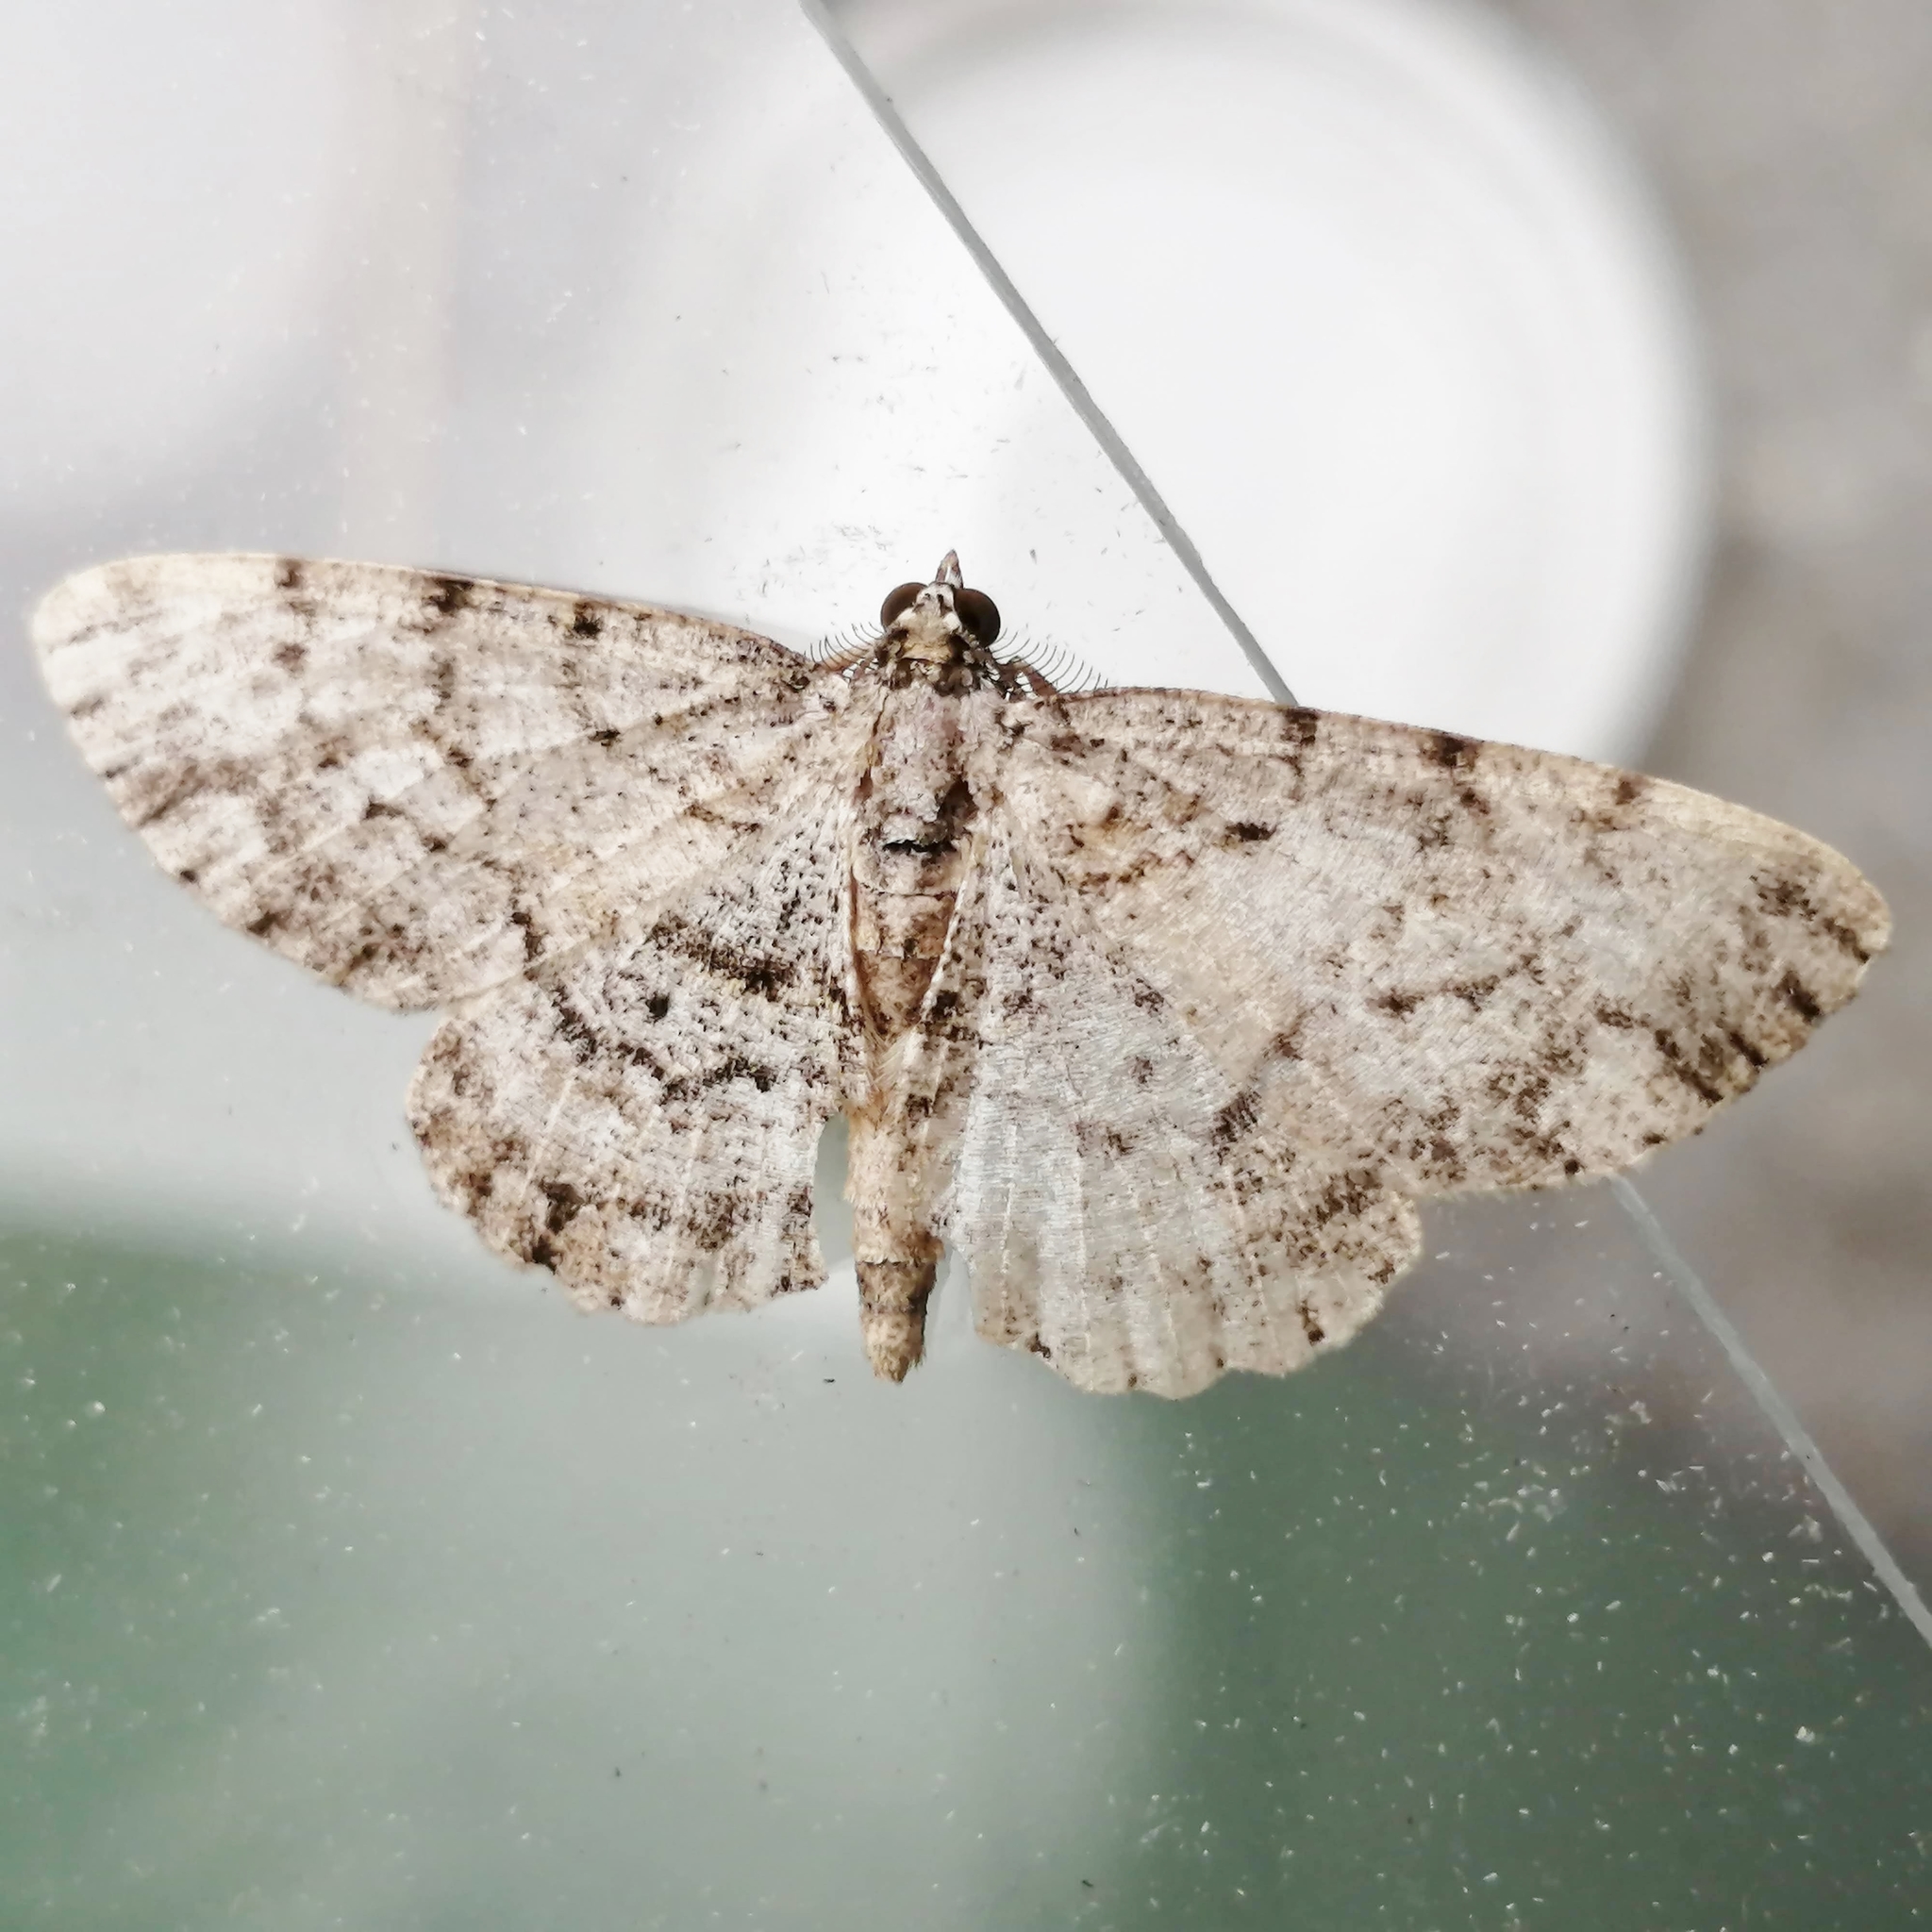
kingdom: Animalia
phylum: Arthropoda
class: Insecta
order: Lepidoptera
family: Geometridae
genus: Protoboarmia
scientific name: Protoboarmia porcelaria
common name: Porcelain gray
